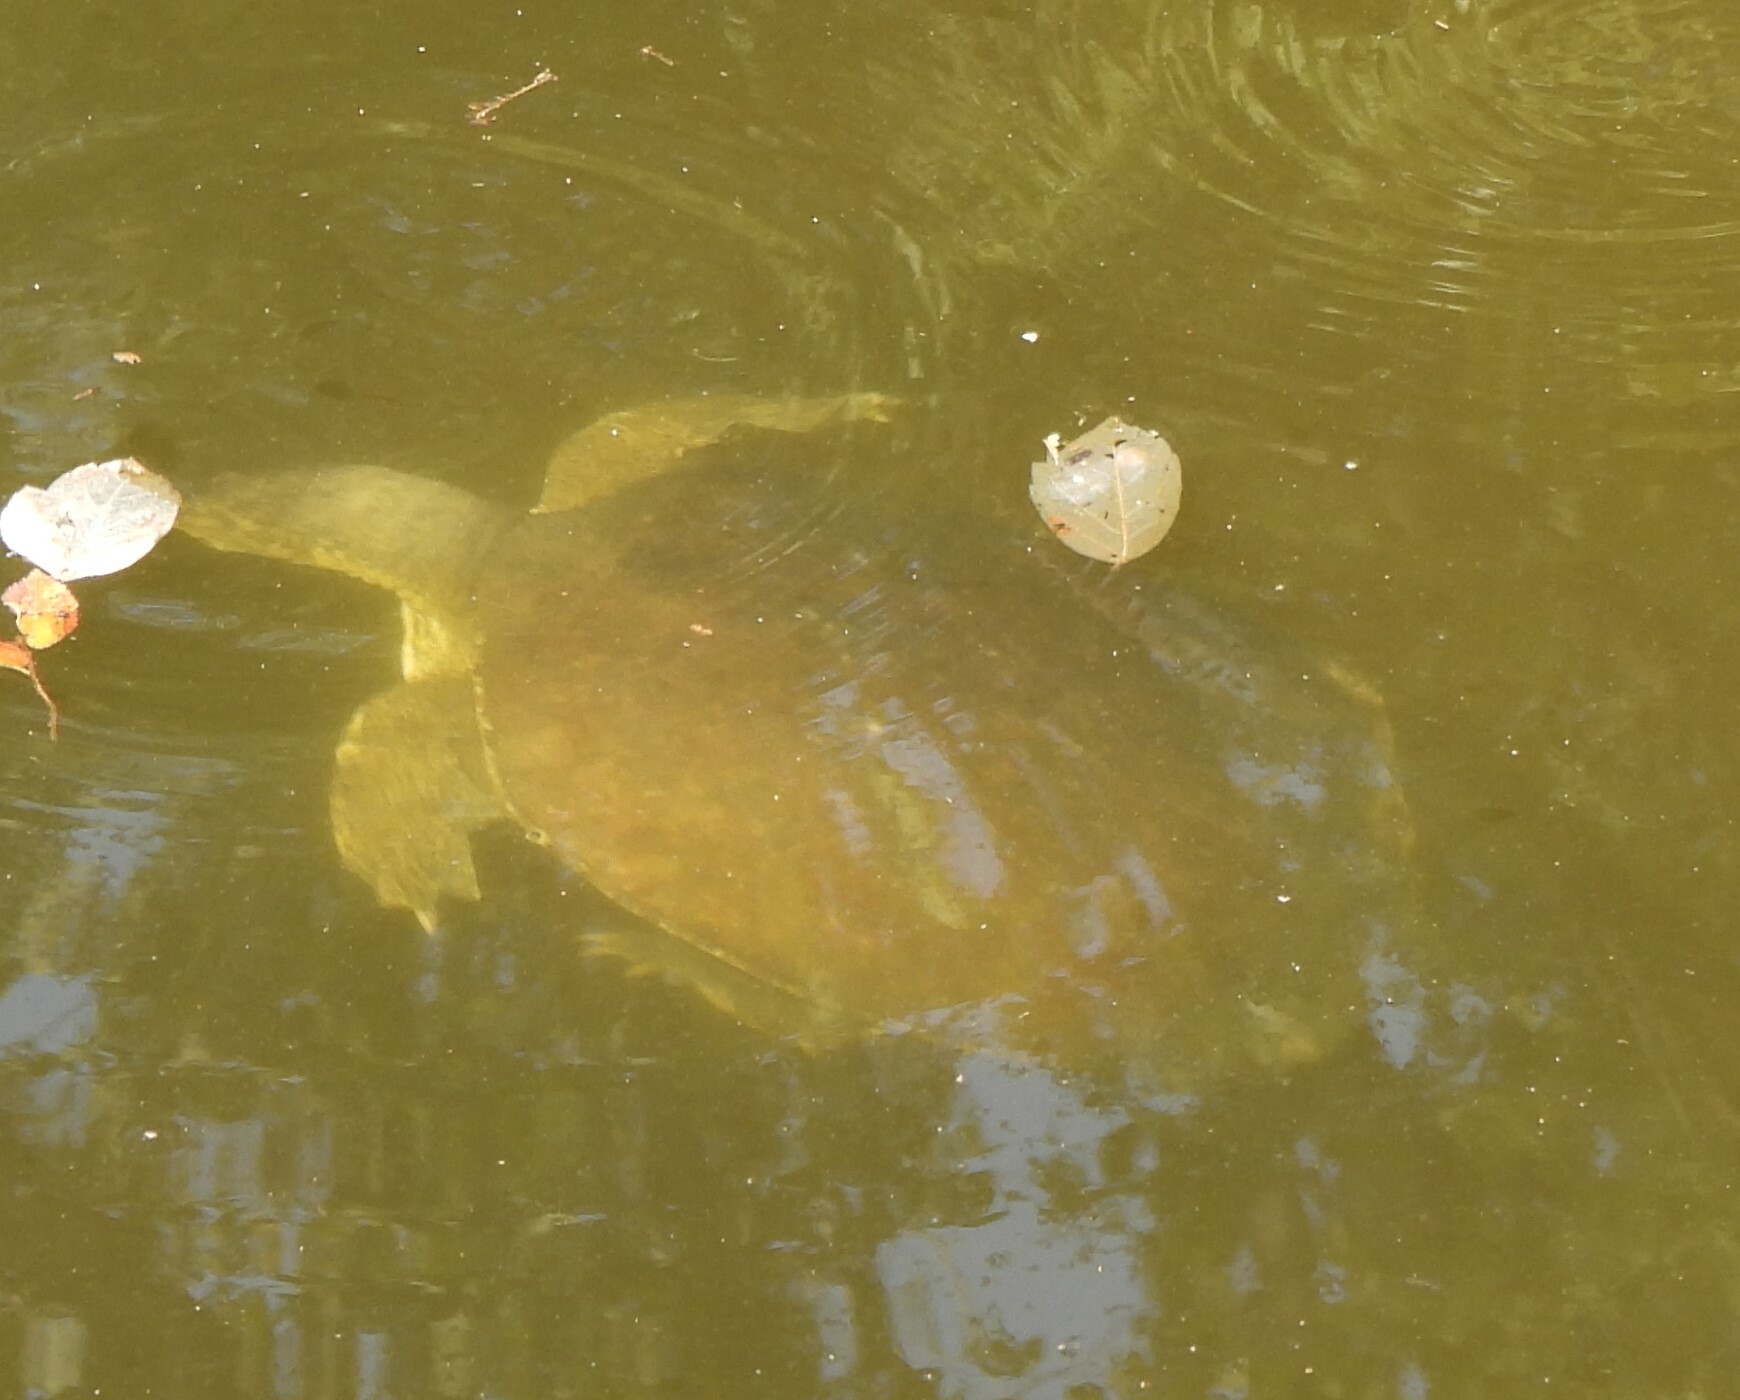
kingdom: Animalia
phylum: Chordata
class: Testudines
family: Trionychidae
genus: Apalone
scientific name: Apalone spinifera
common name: Spiny softshell turtle
